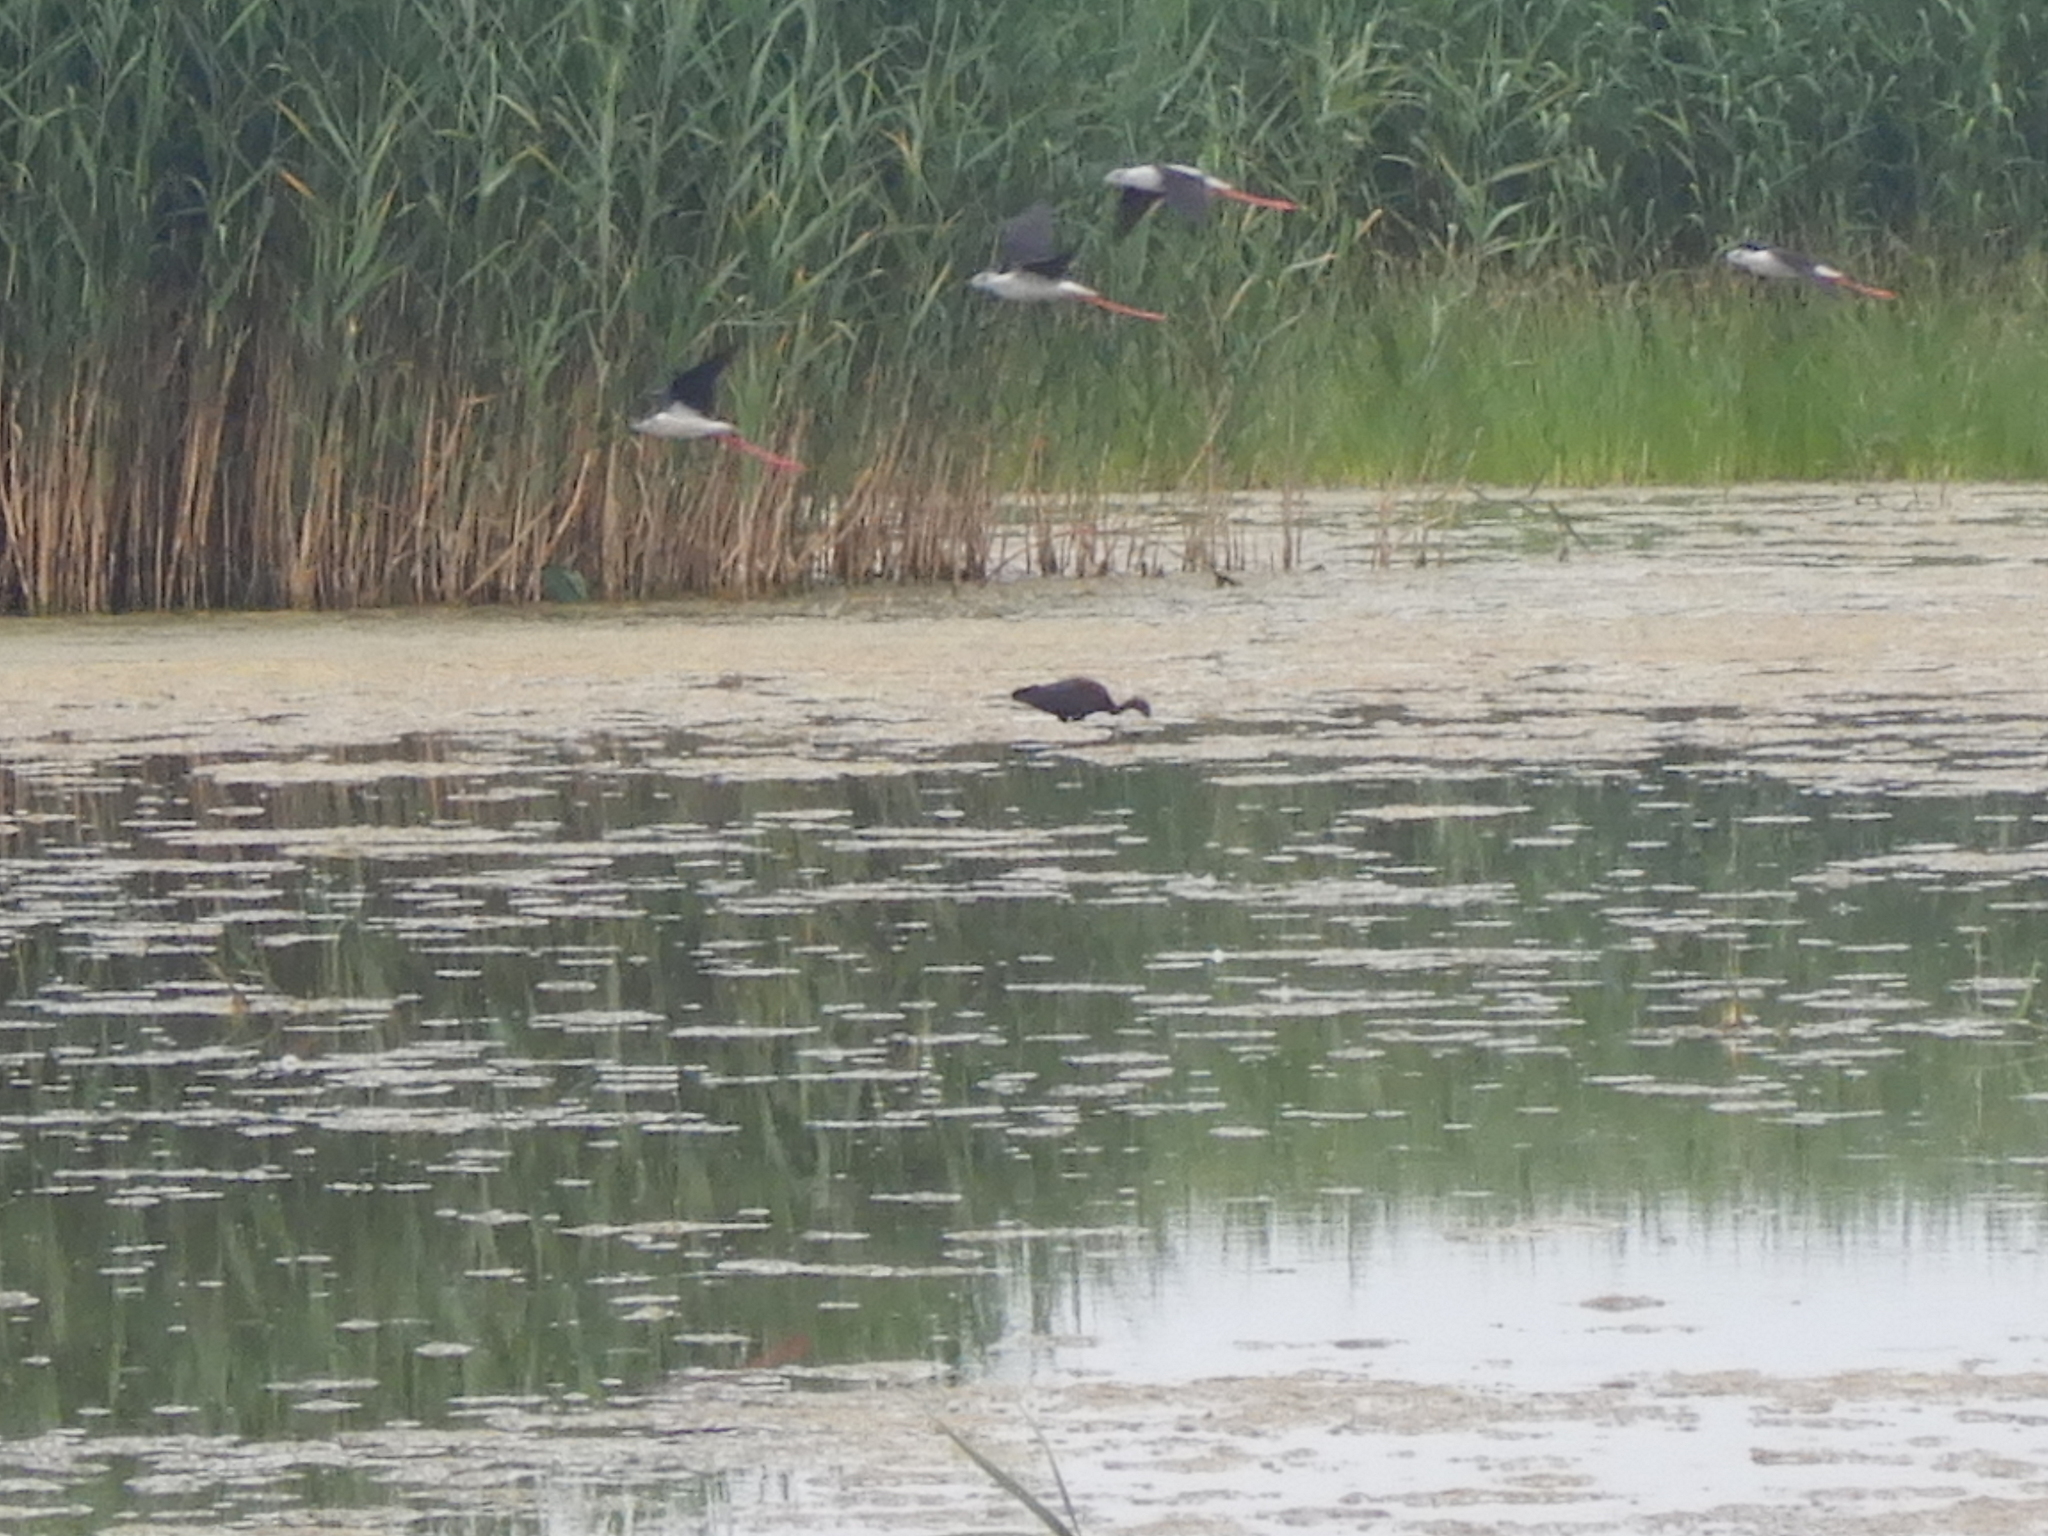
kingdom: Animalia
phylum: Chordata
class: Aves
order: Charadriiformes
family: Recurvirostridae
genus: Himantopus
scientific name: Himantopus himantopus
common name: Black-winged stilt
